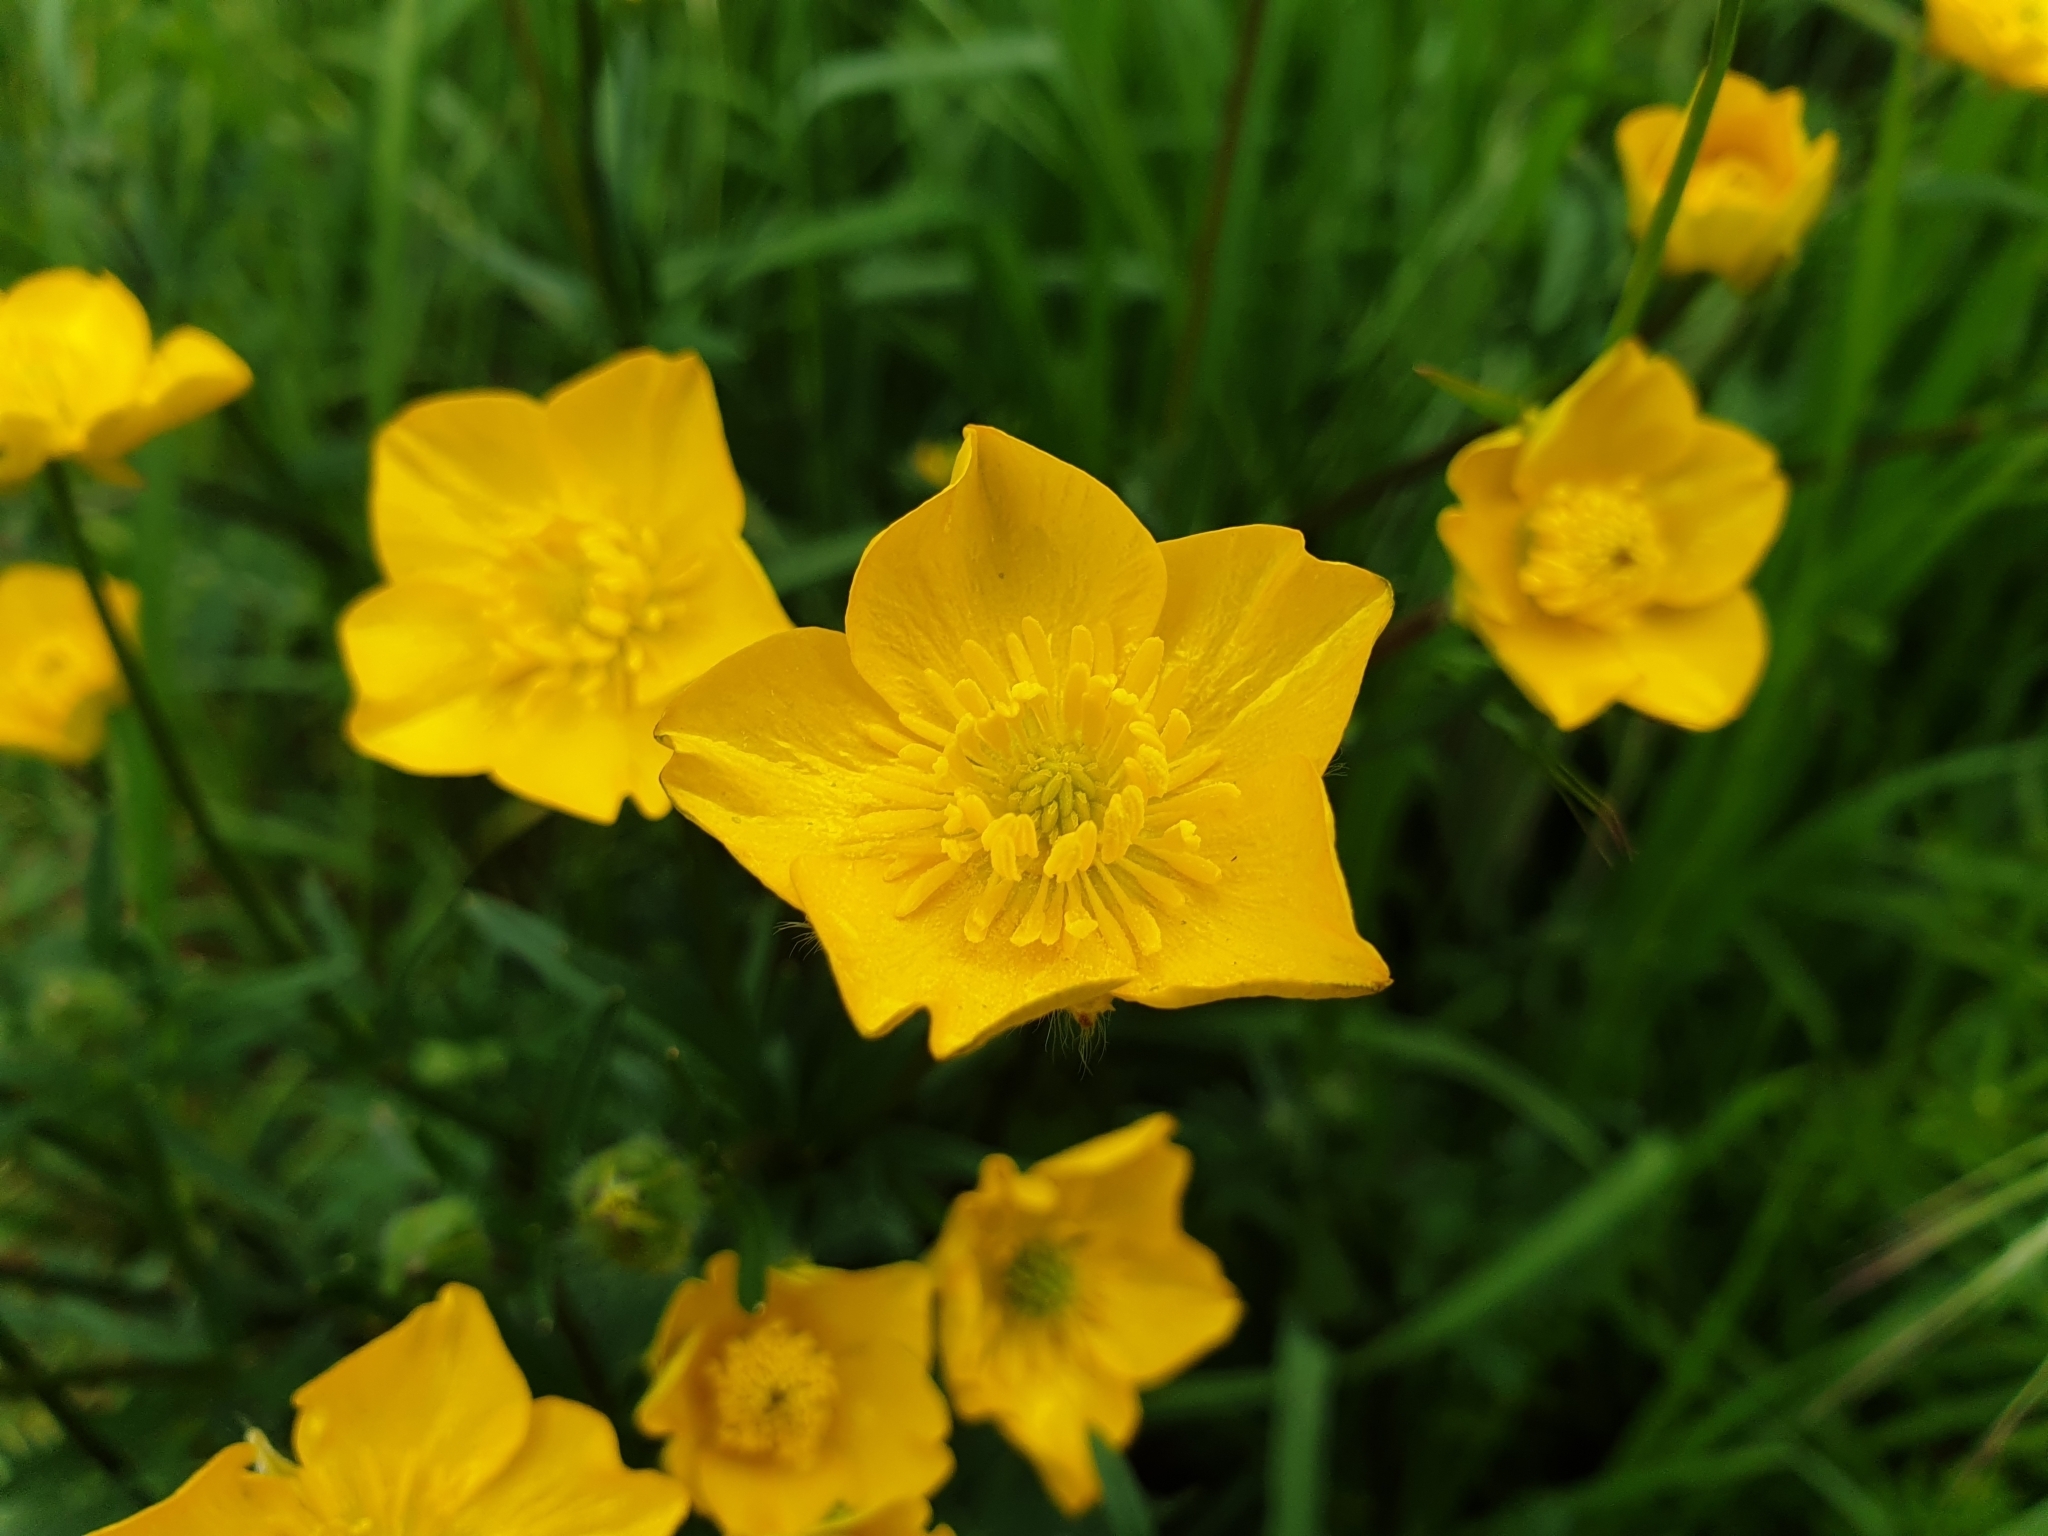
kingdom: Plantae
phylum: Tracheophyta
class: Magnoliopsida
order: Ranunculales
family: Ranunculaceae
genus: Ranunculus
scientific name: Ranunculus repens
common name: Creeping buttercup
